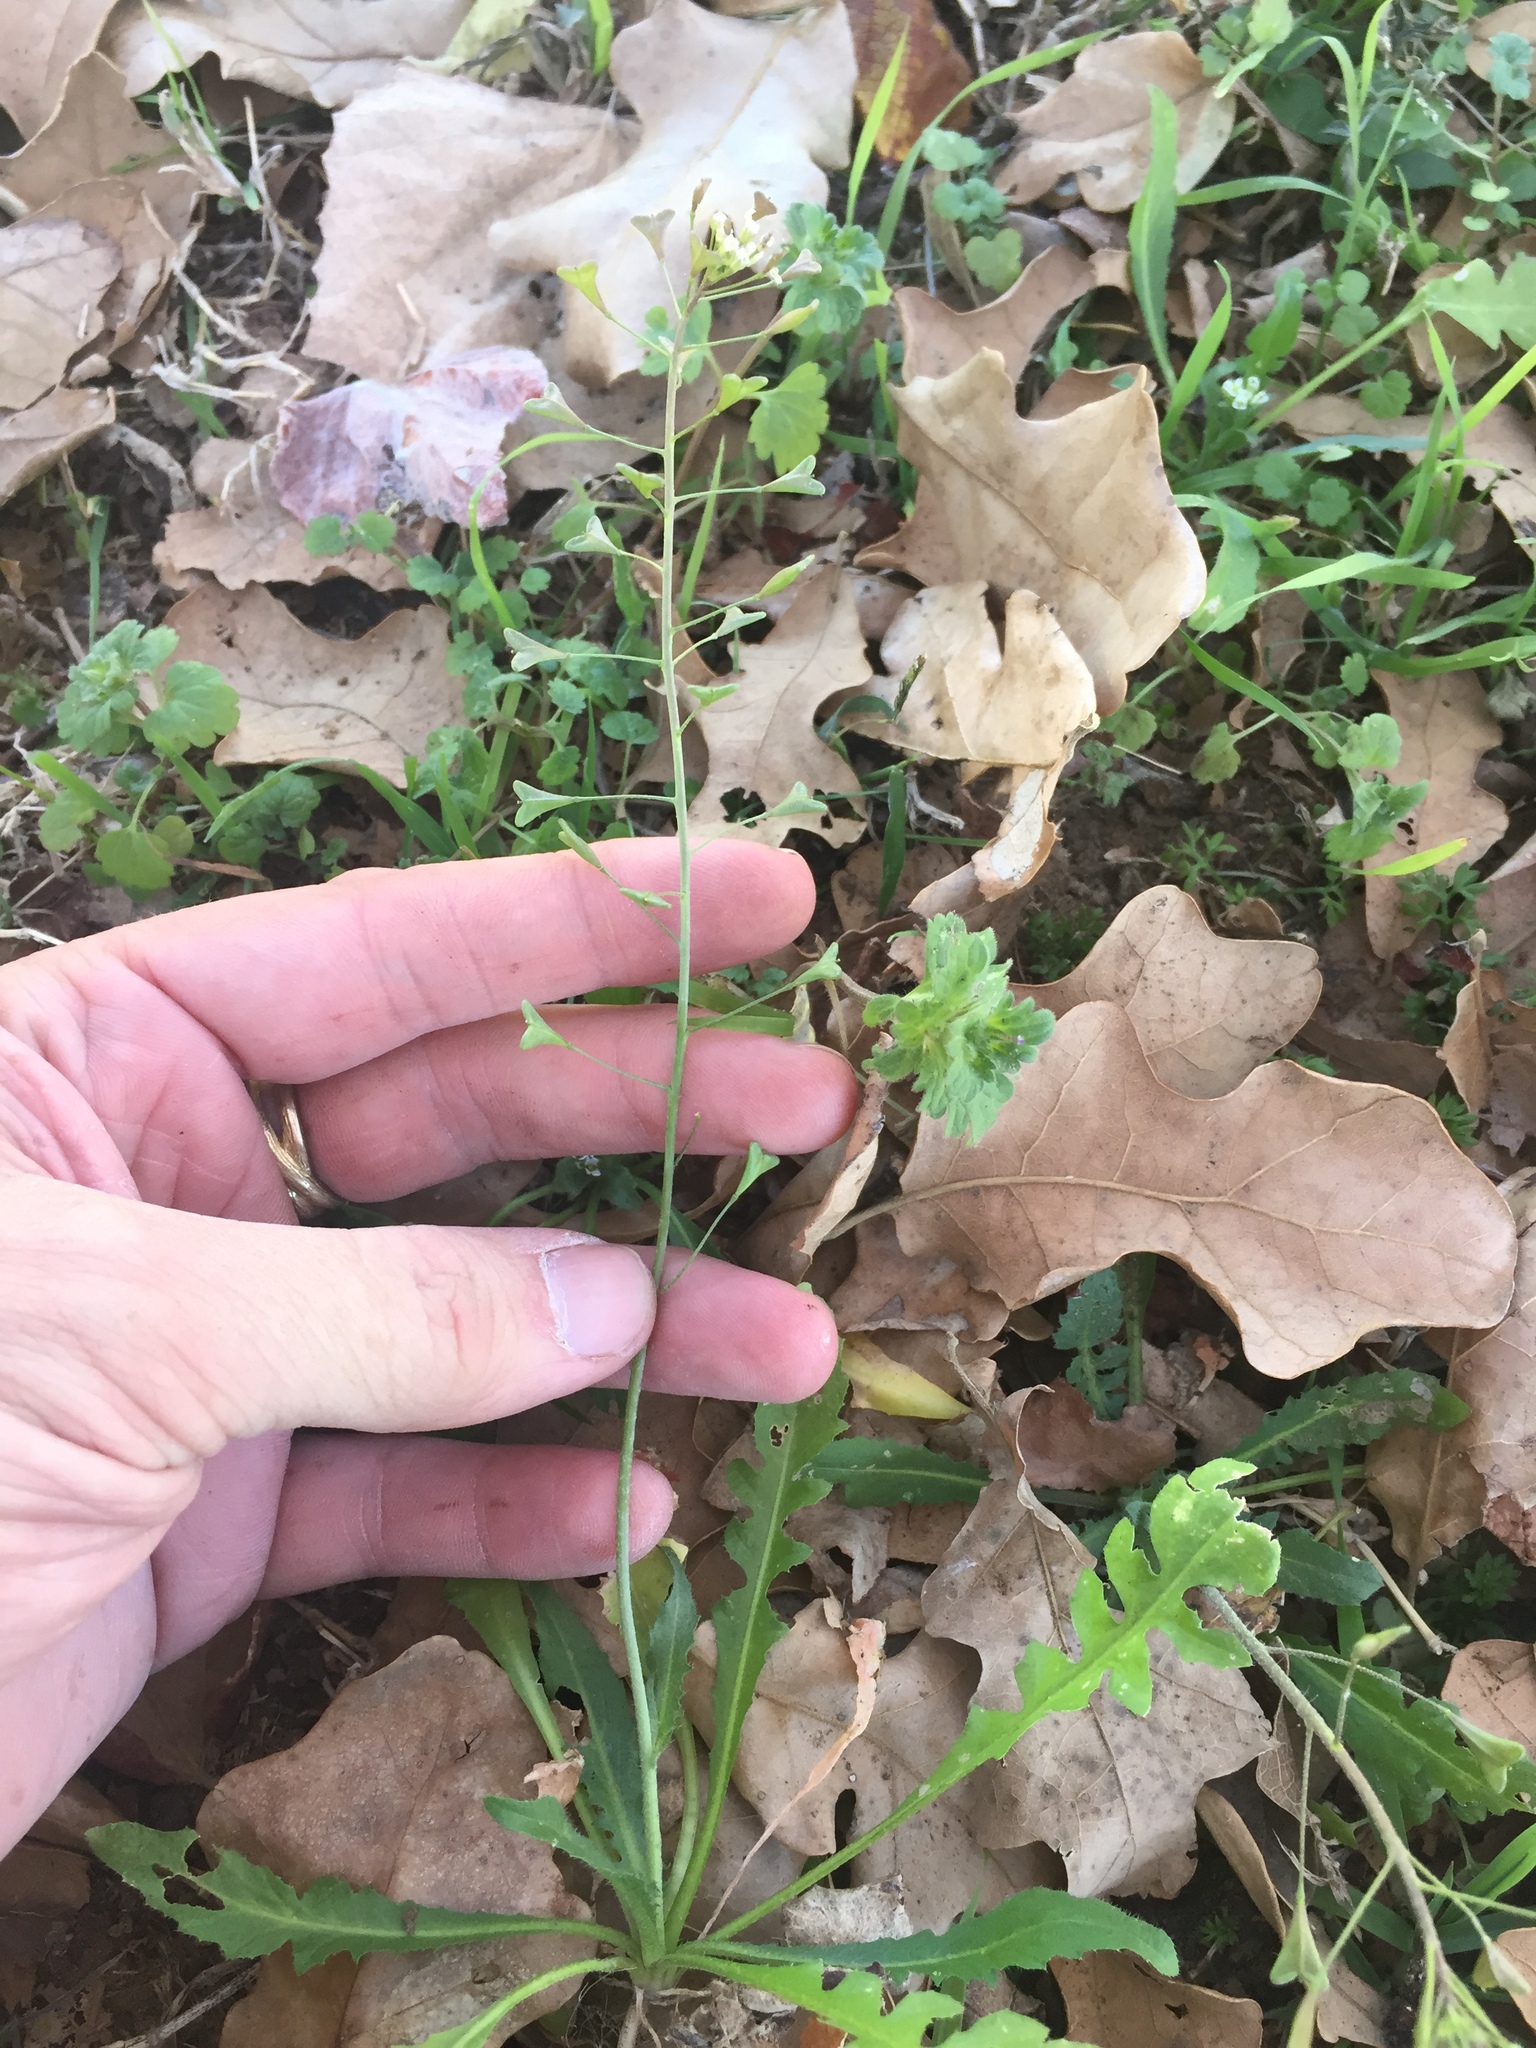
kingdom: Plantae
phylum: Tracheophyta
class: Magnoliopsida
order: Brassicales
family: Brassicaceae
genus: Capsella
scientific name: Capsella bursa-pastoris
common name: Shepherd's purse
